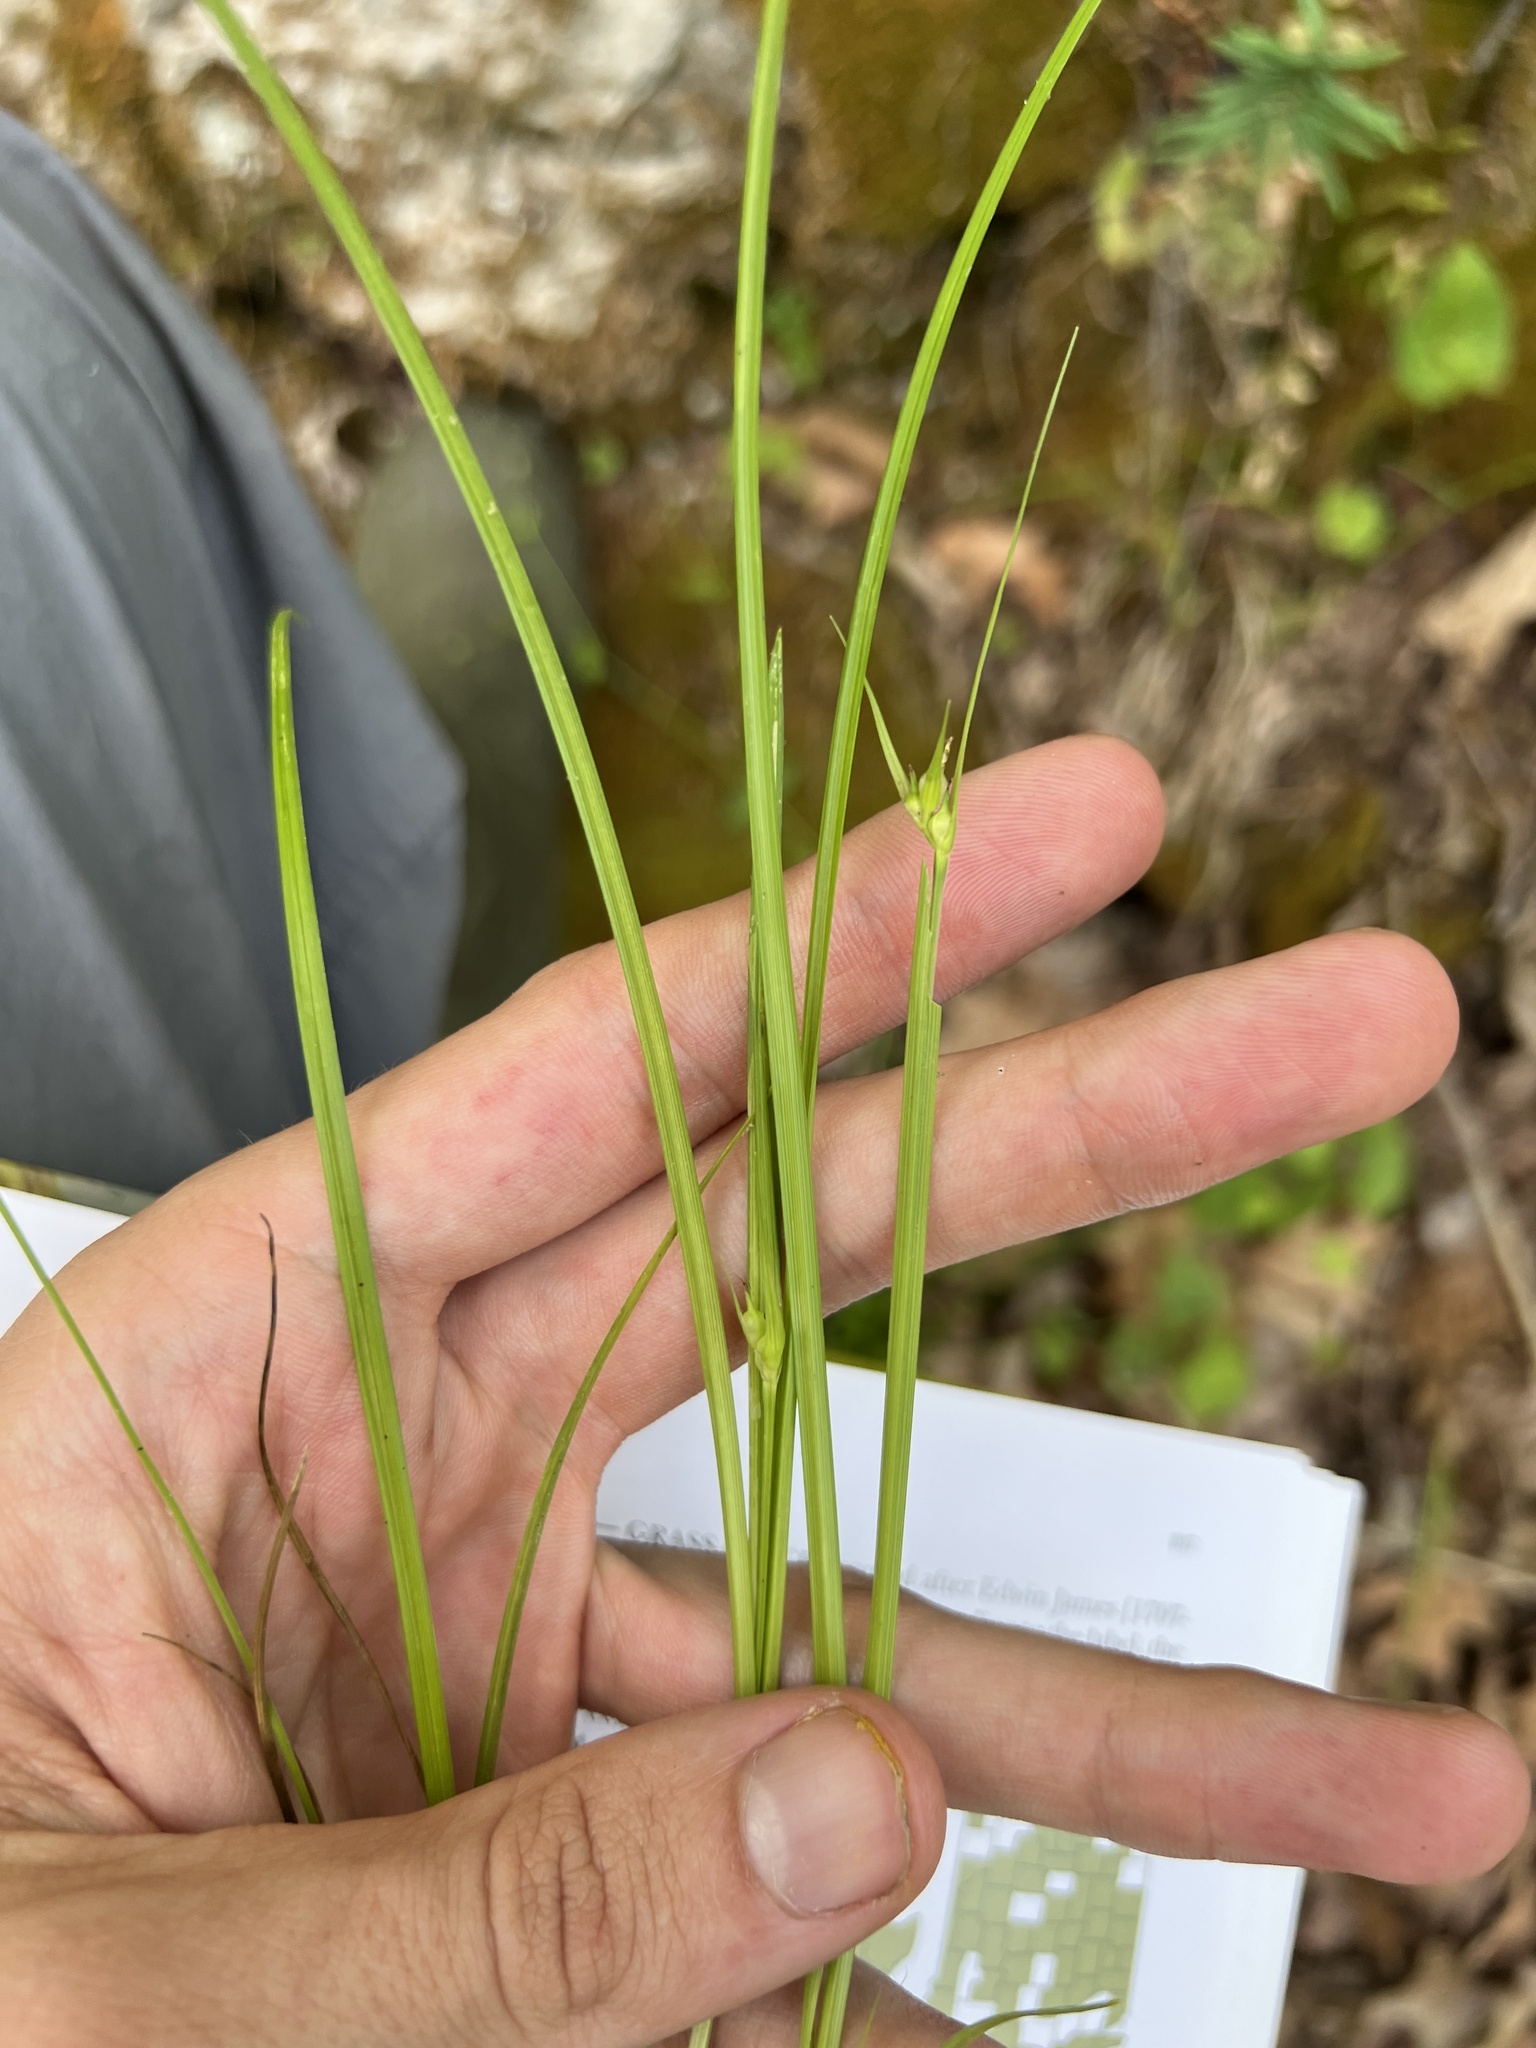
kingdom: Plantae
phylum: Tracheophyta
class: Liliopsida
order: Poales
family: Cyperaceae
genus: Carex
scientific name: Carex jamesii
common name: Grass sedge
